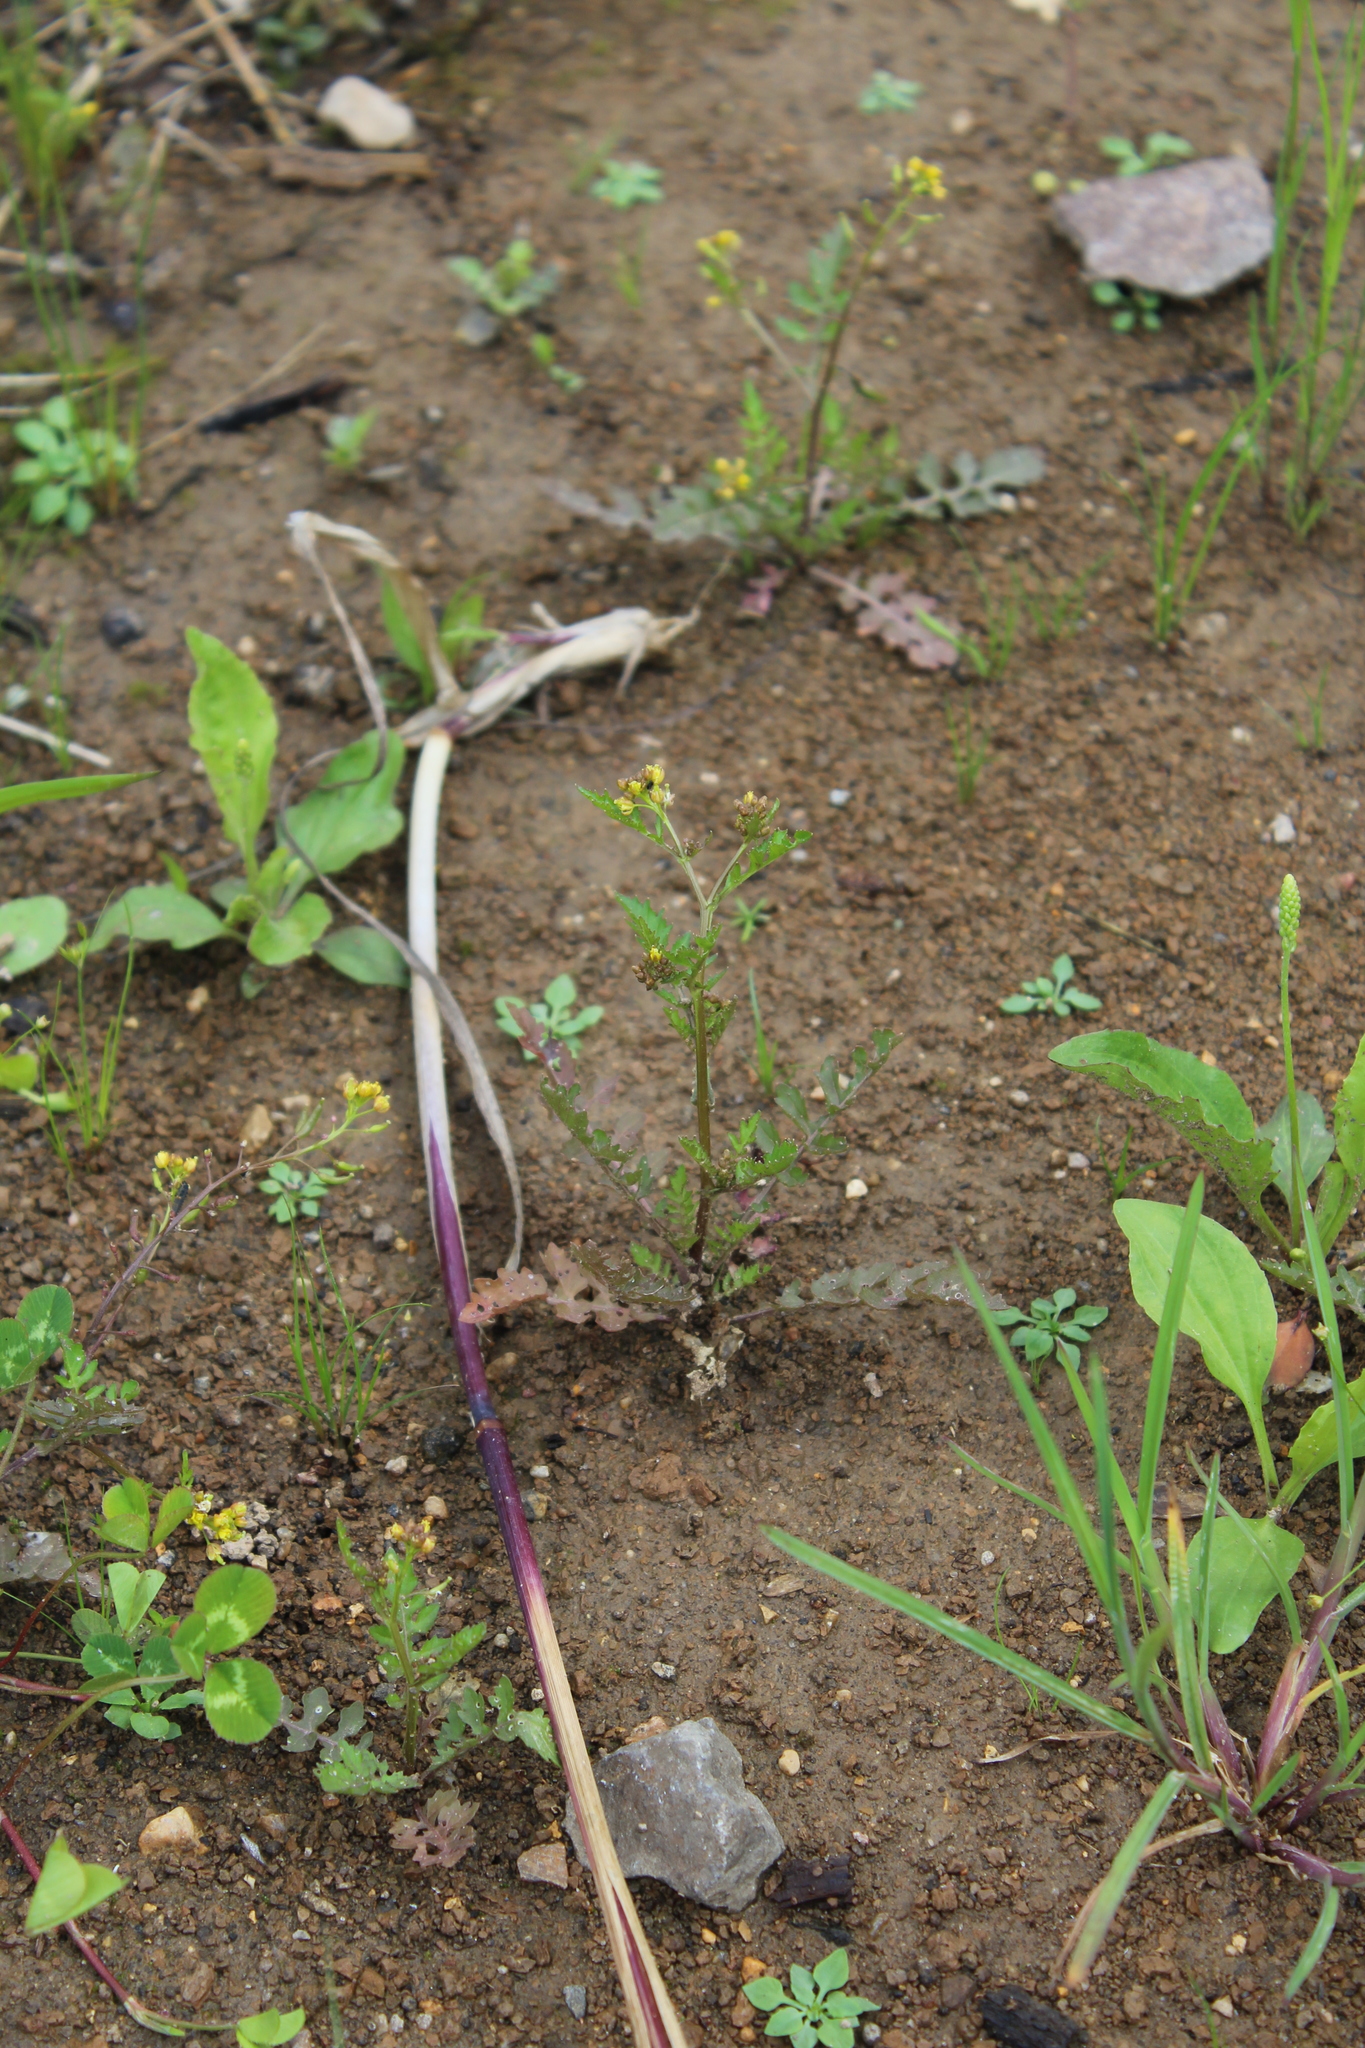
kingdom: Plantae
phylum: Tracheophyta
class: Magnoliopsida
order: Brassicales
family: Brassicaceae
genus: Rorippa
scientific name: Rorippa palustris
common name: Marsh yellow-cress
